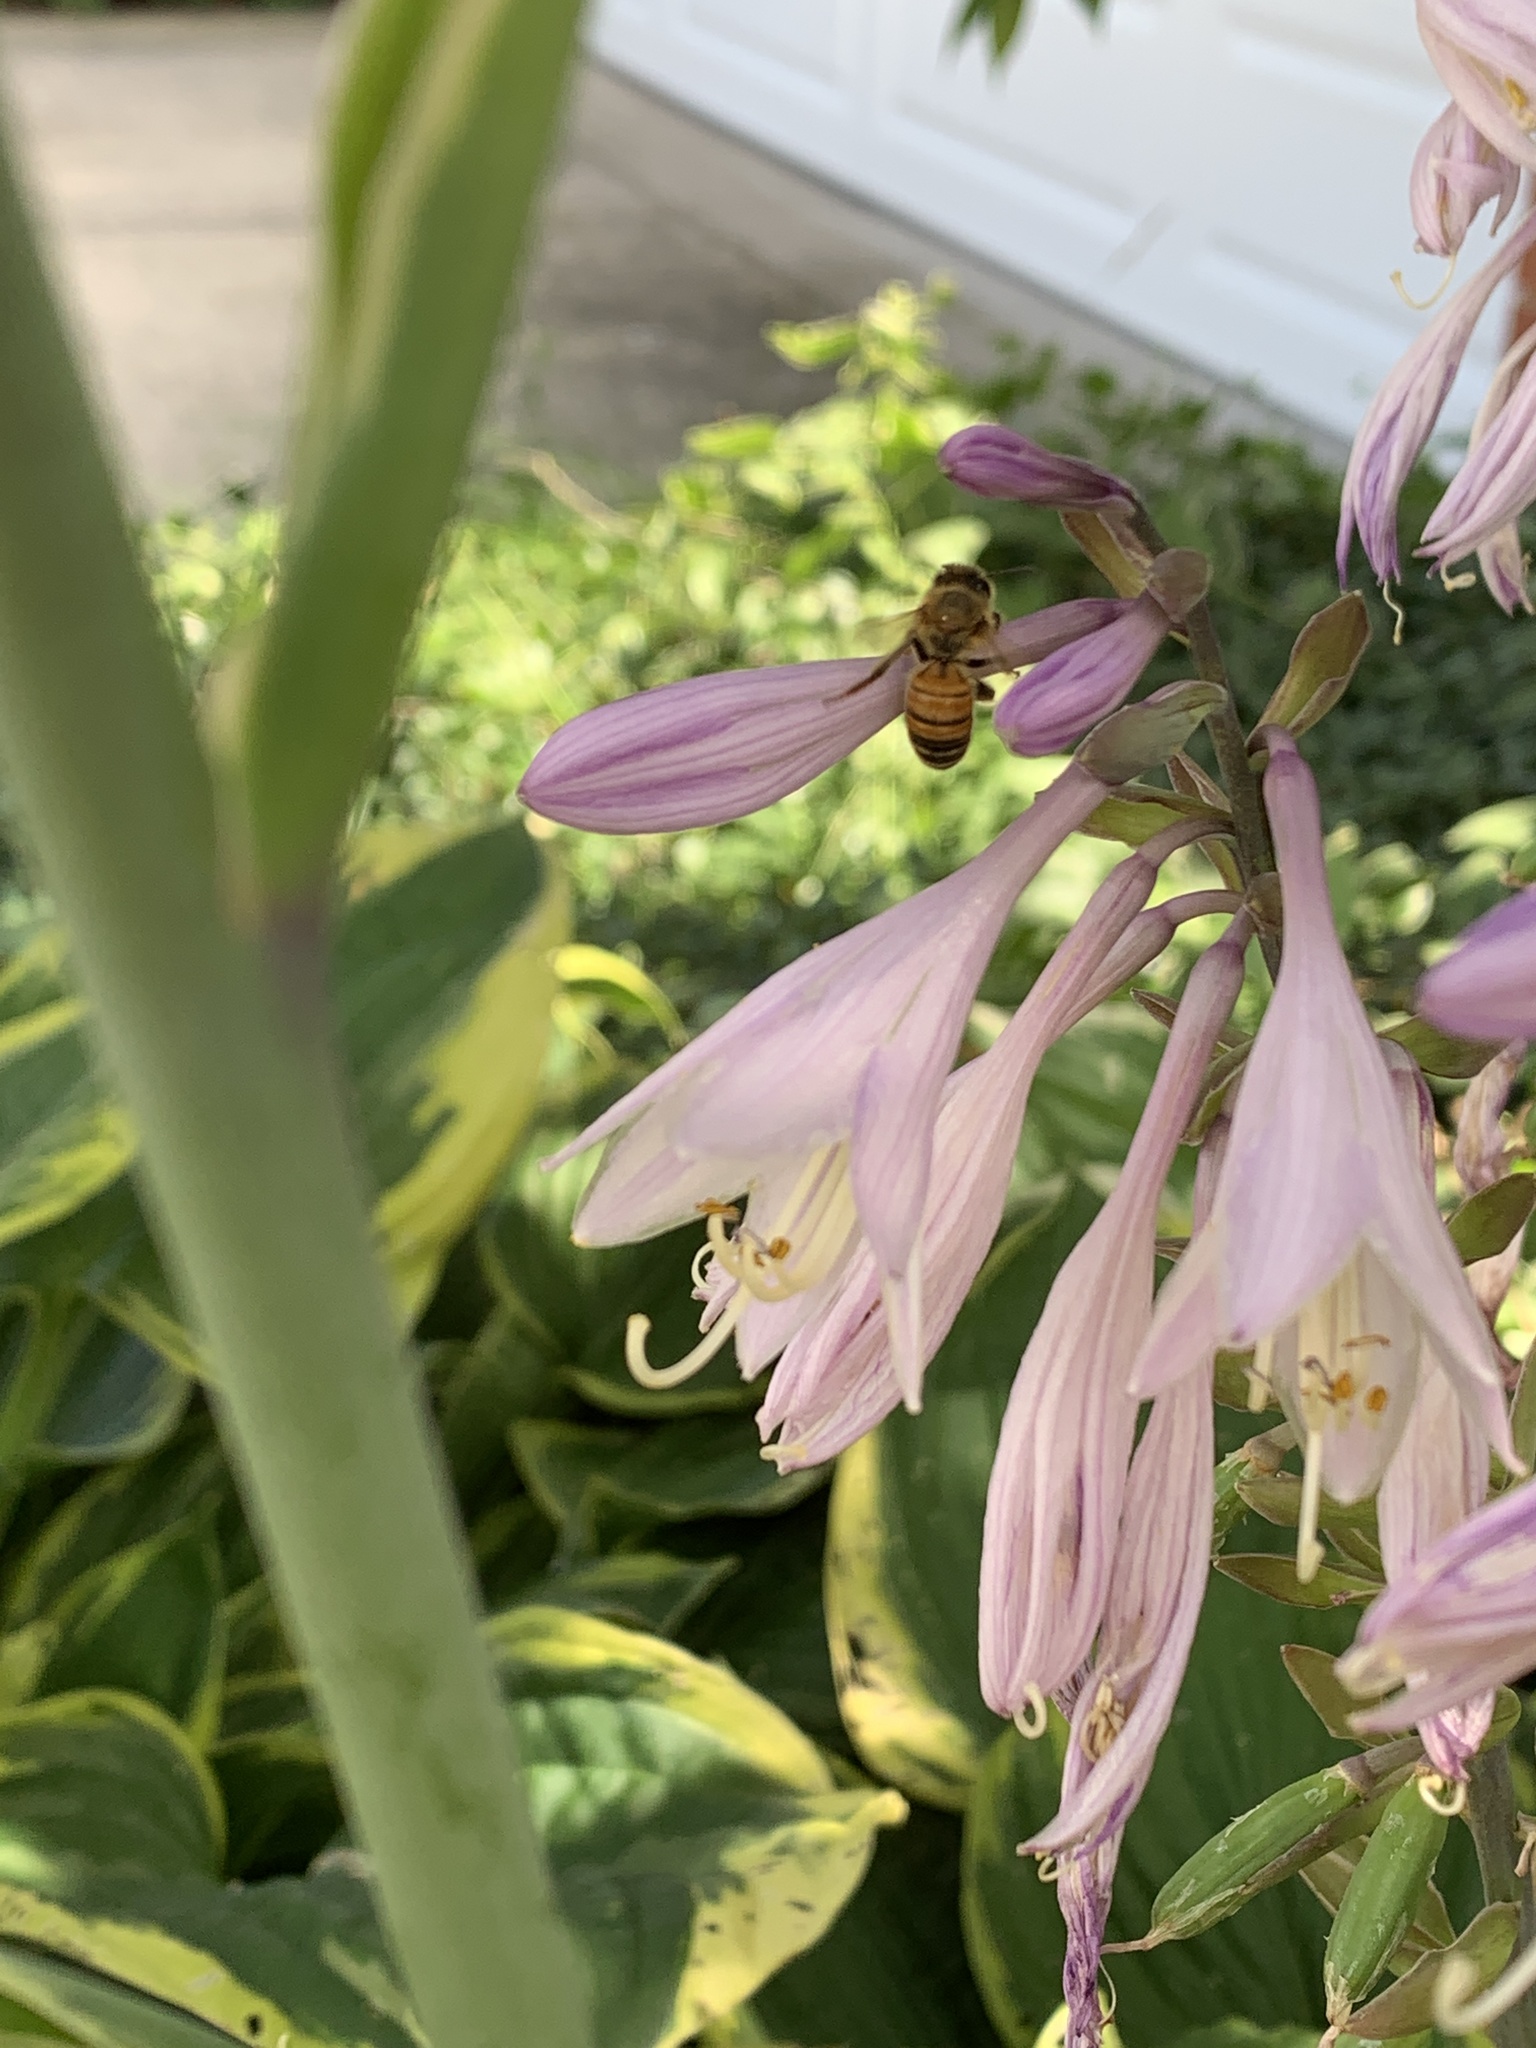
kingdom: Animalia
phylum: Arthropoda
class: Insecta
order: Hymenoptera
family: Apidae
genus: Apis
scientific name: Apis mellifera
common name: Honey bee
